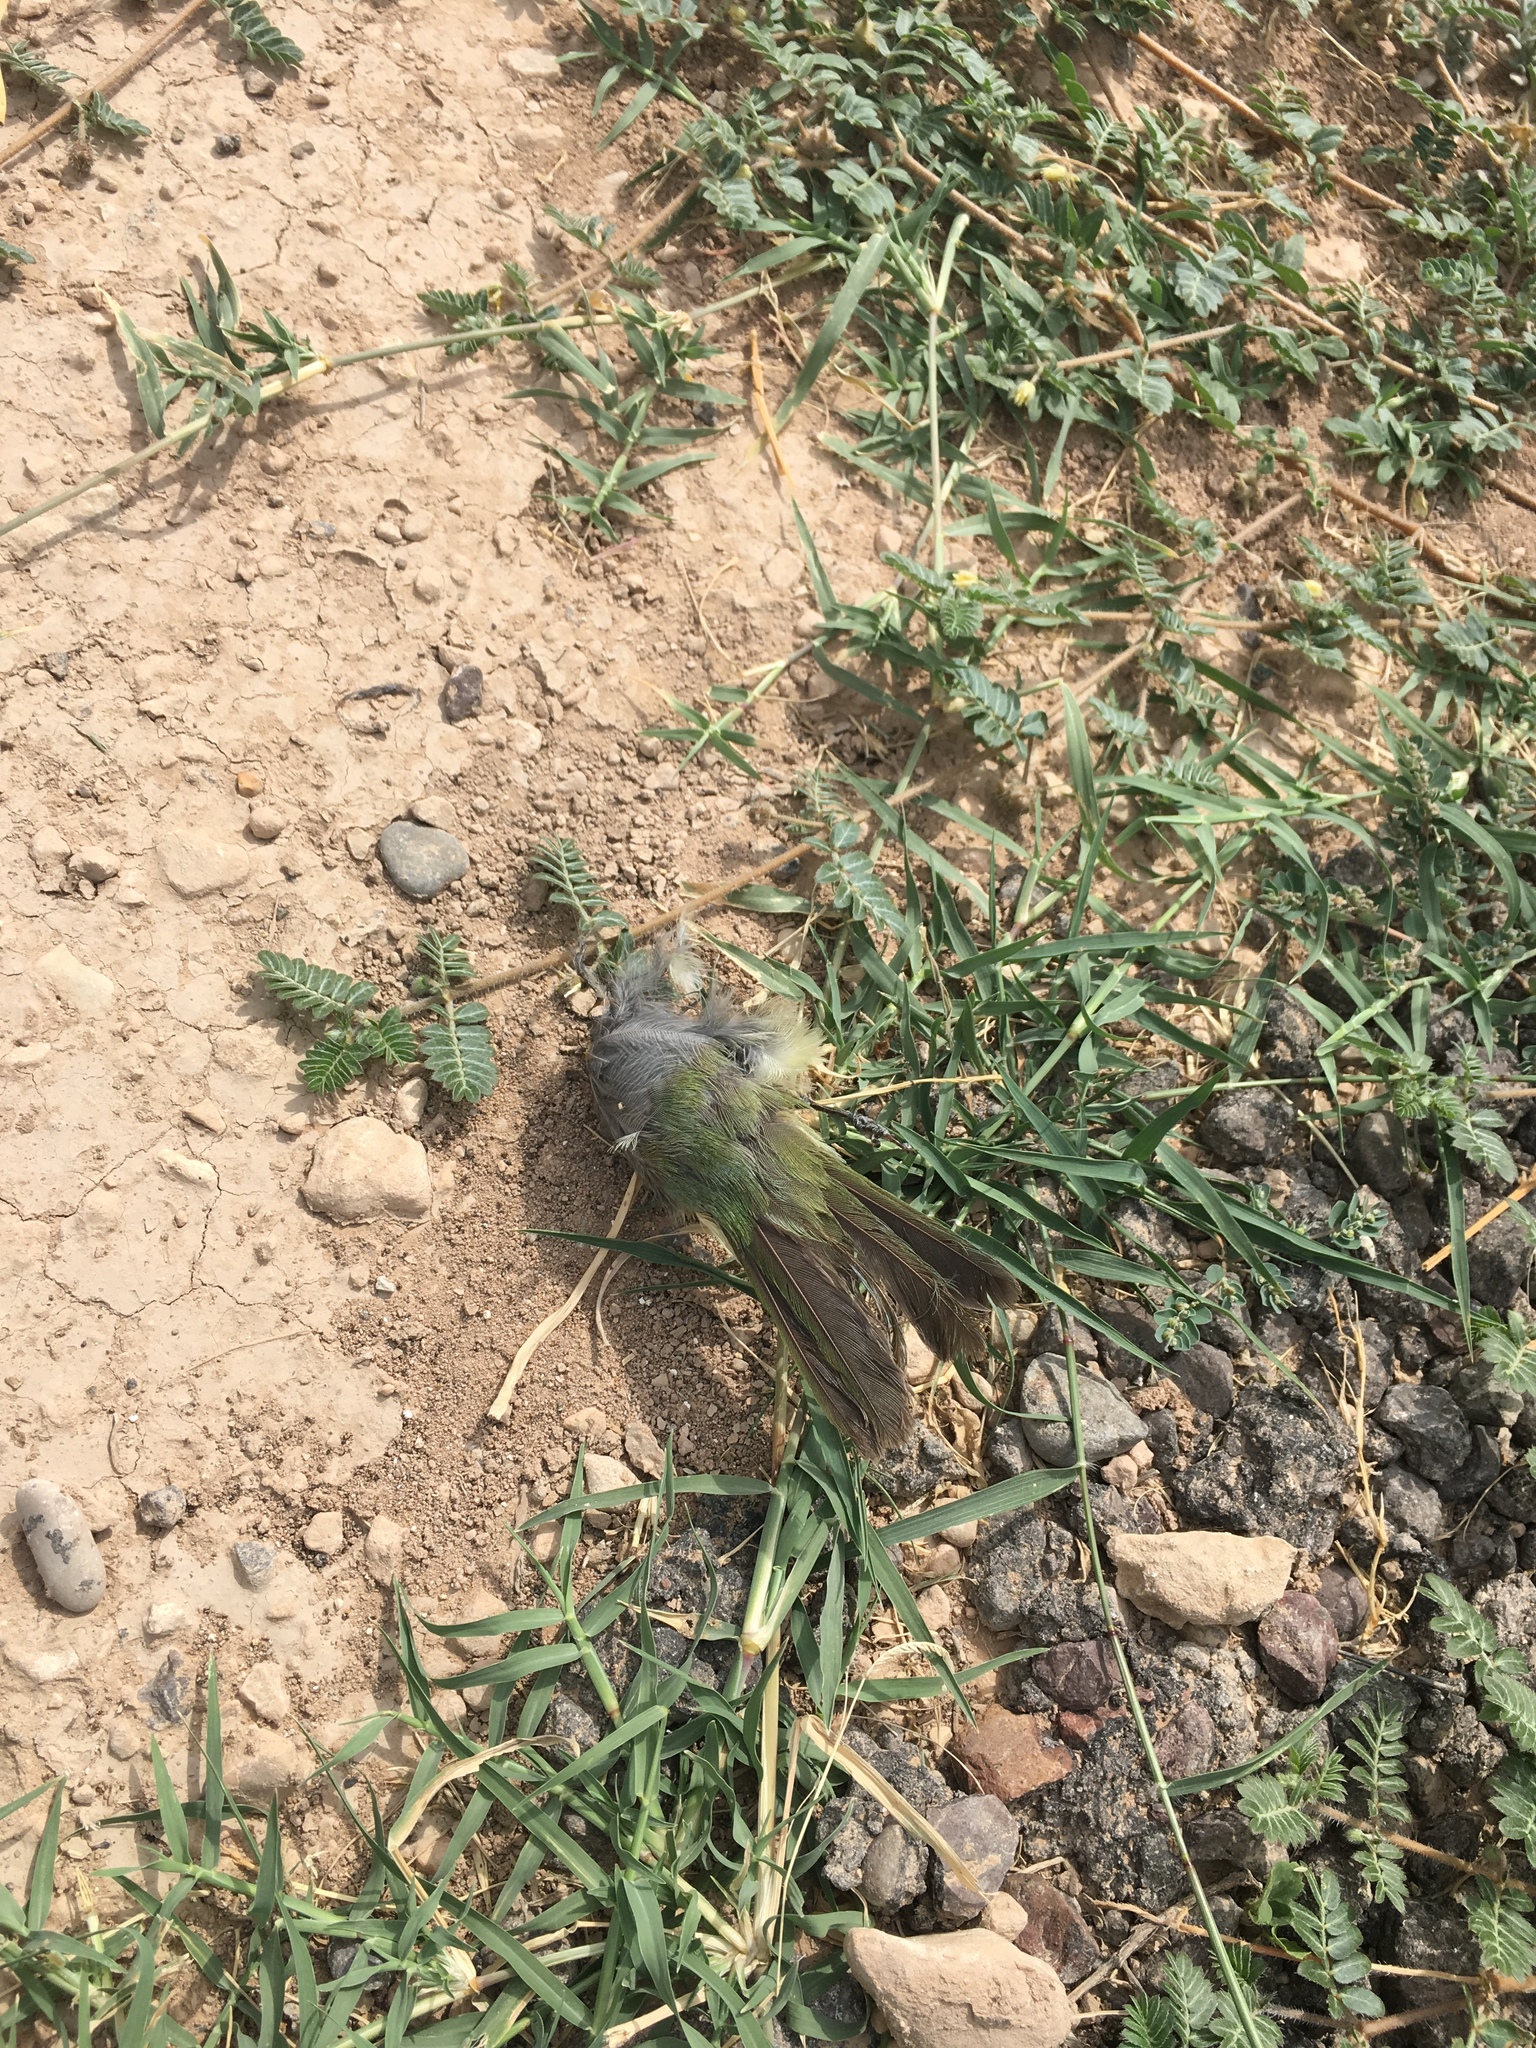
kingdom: Animalia
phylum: Chordata
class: Aves
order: Passeriformes
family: Cardinalidae
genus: Passerina
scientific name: Passerina ciris
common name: Painted bunting
